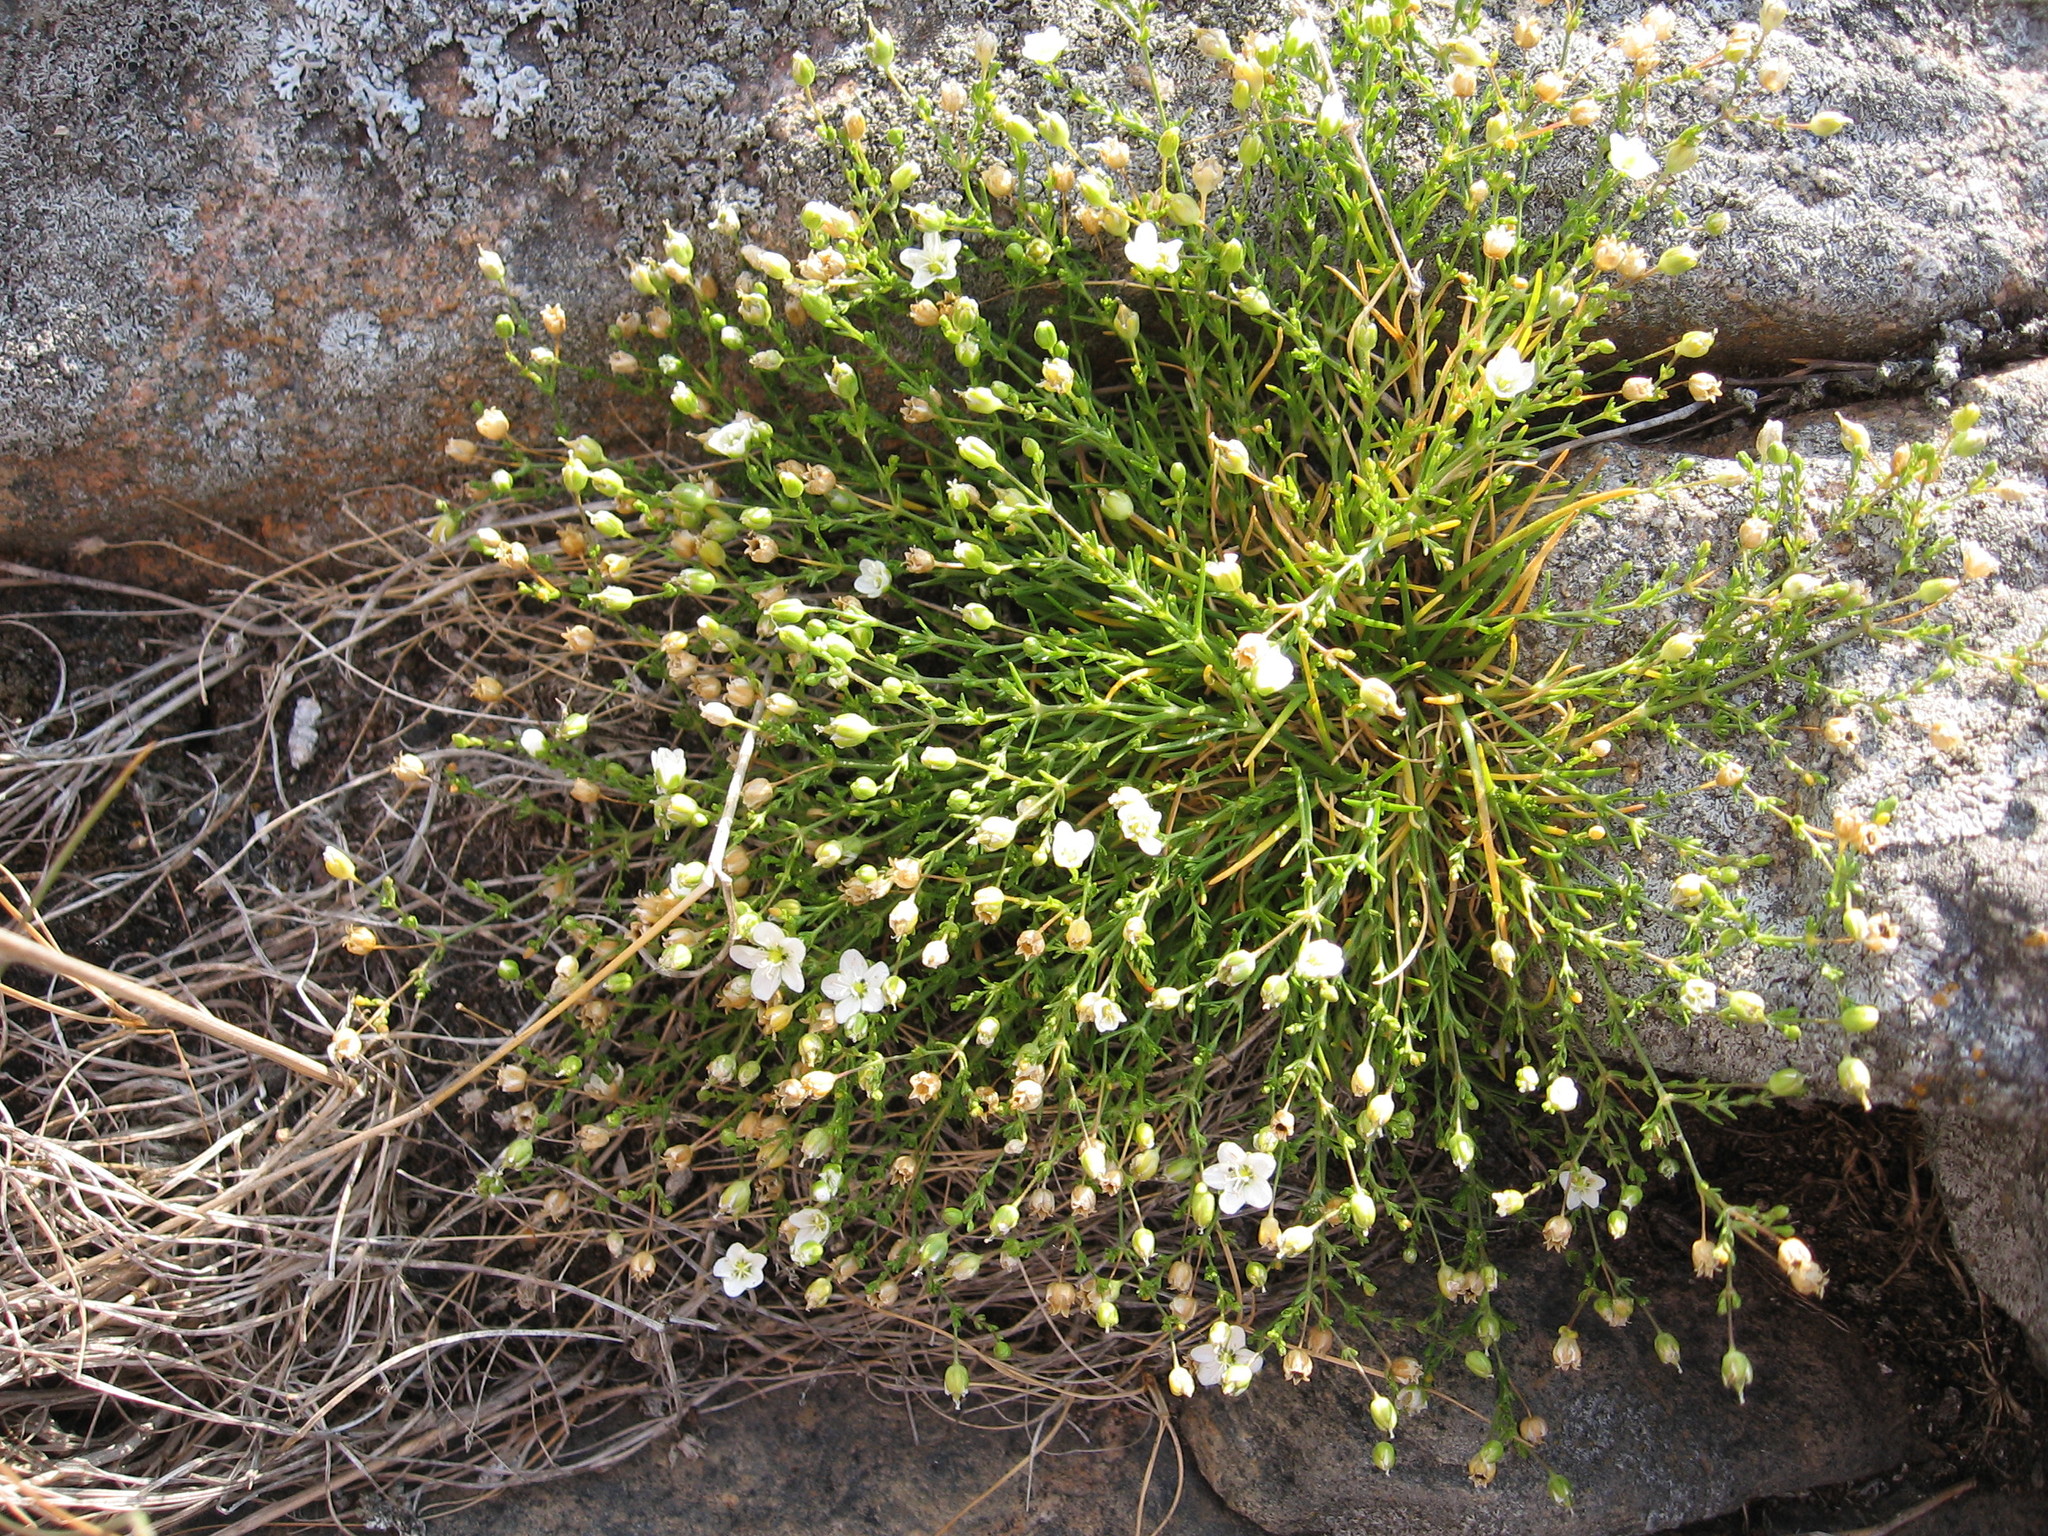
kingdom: Plantae
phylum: Tracheophyta
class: Magnoliopsida
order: Caryophyllales
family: Caryophyllaceae
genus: Sagina
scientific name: Sagina nodosa
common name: Knotted pearlwort
